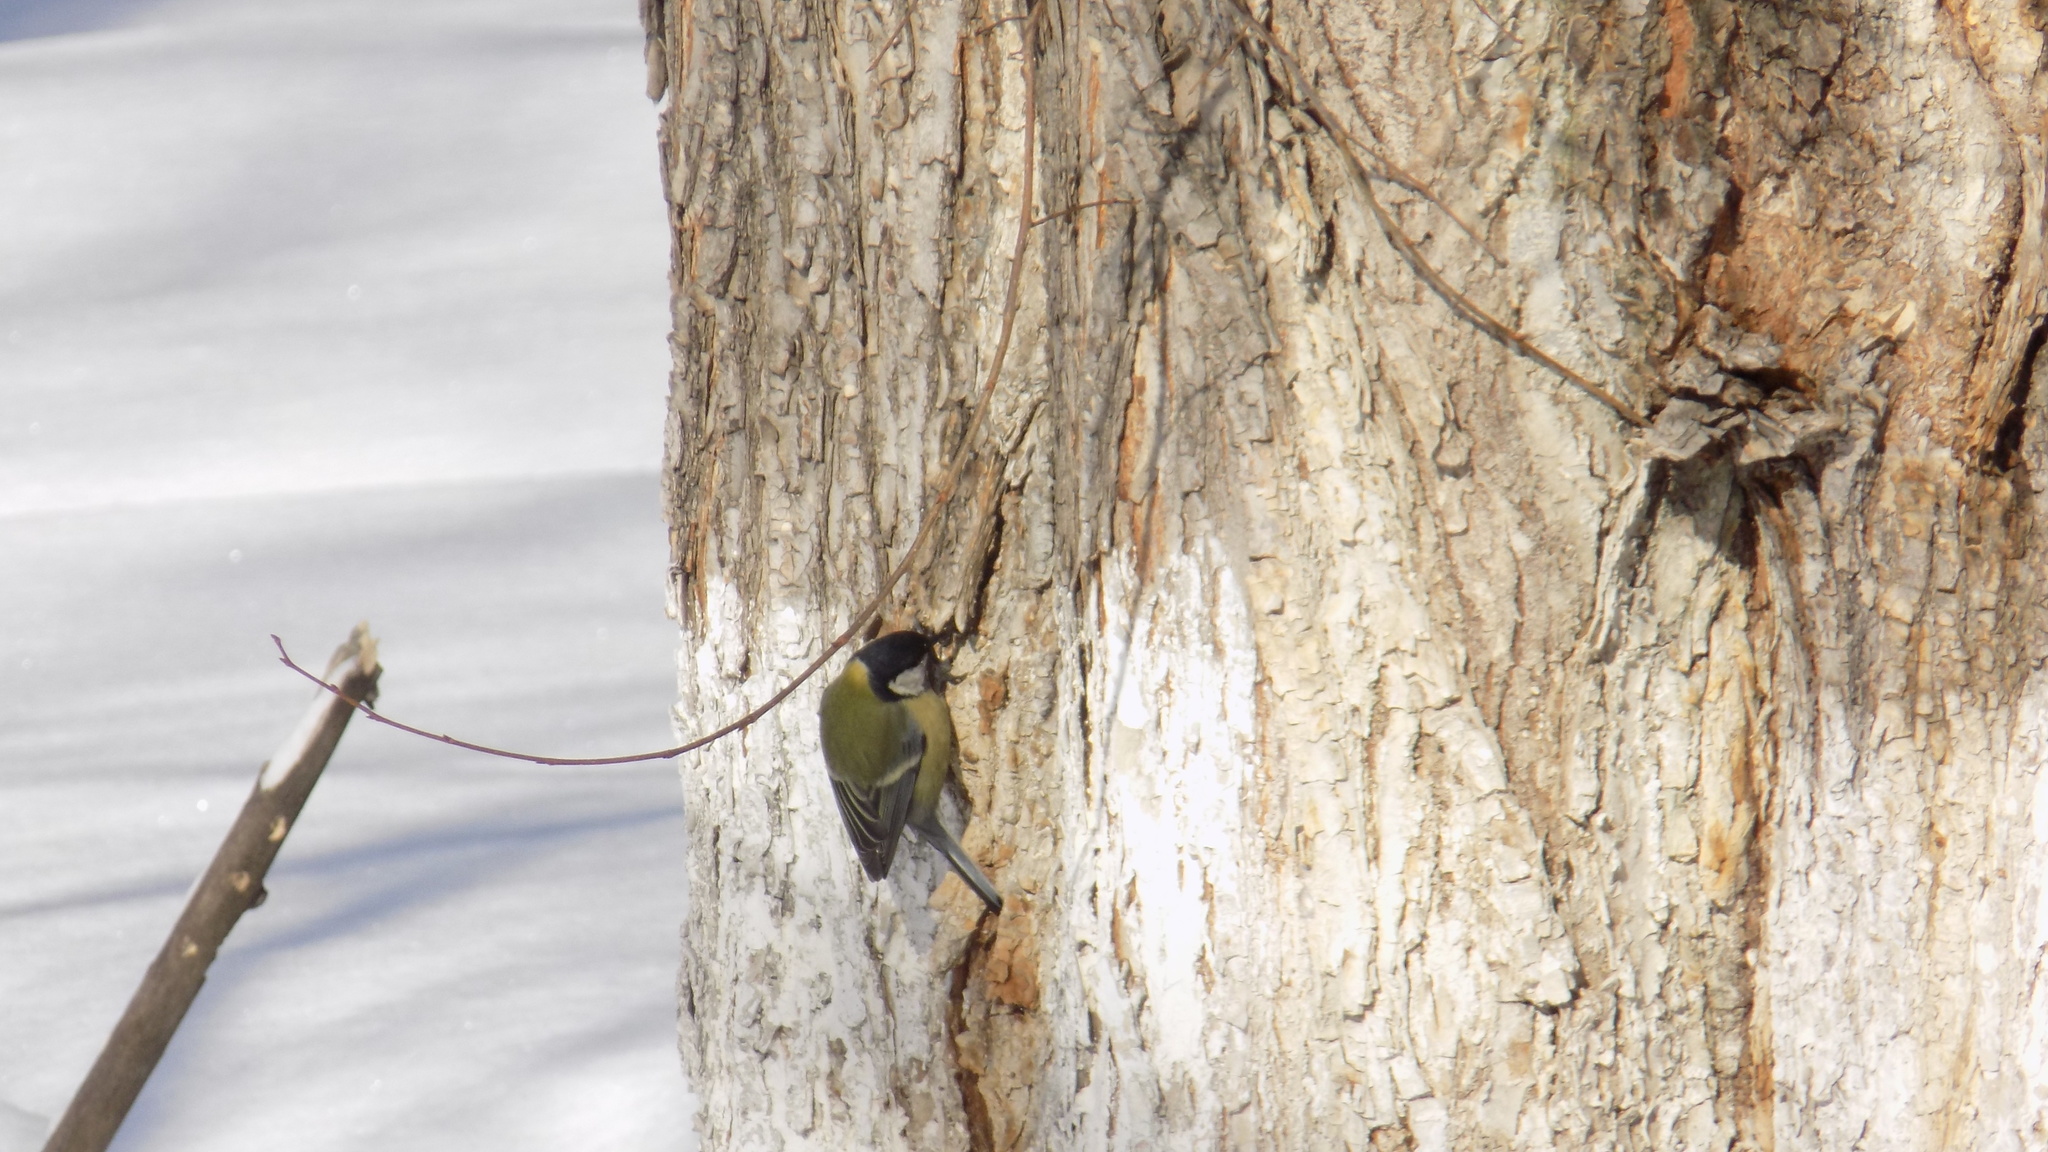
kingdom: Animalia
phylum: Chordata
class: Aves
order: Passeriformes
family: Paridae
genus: Parus
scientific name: Parus major
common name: Great tit
